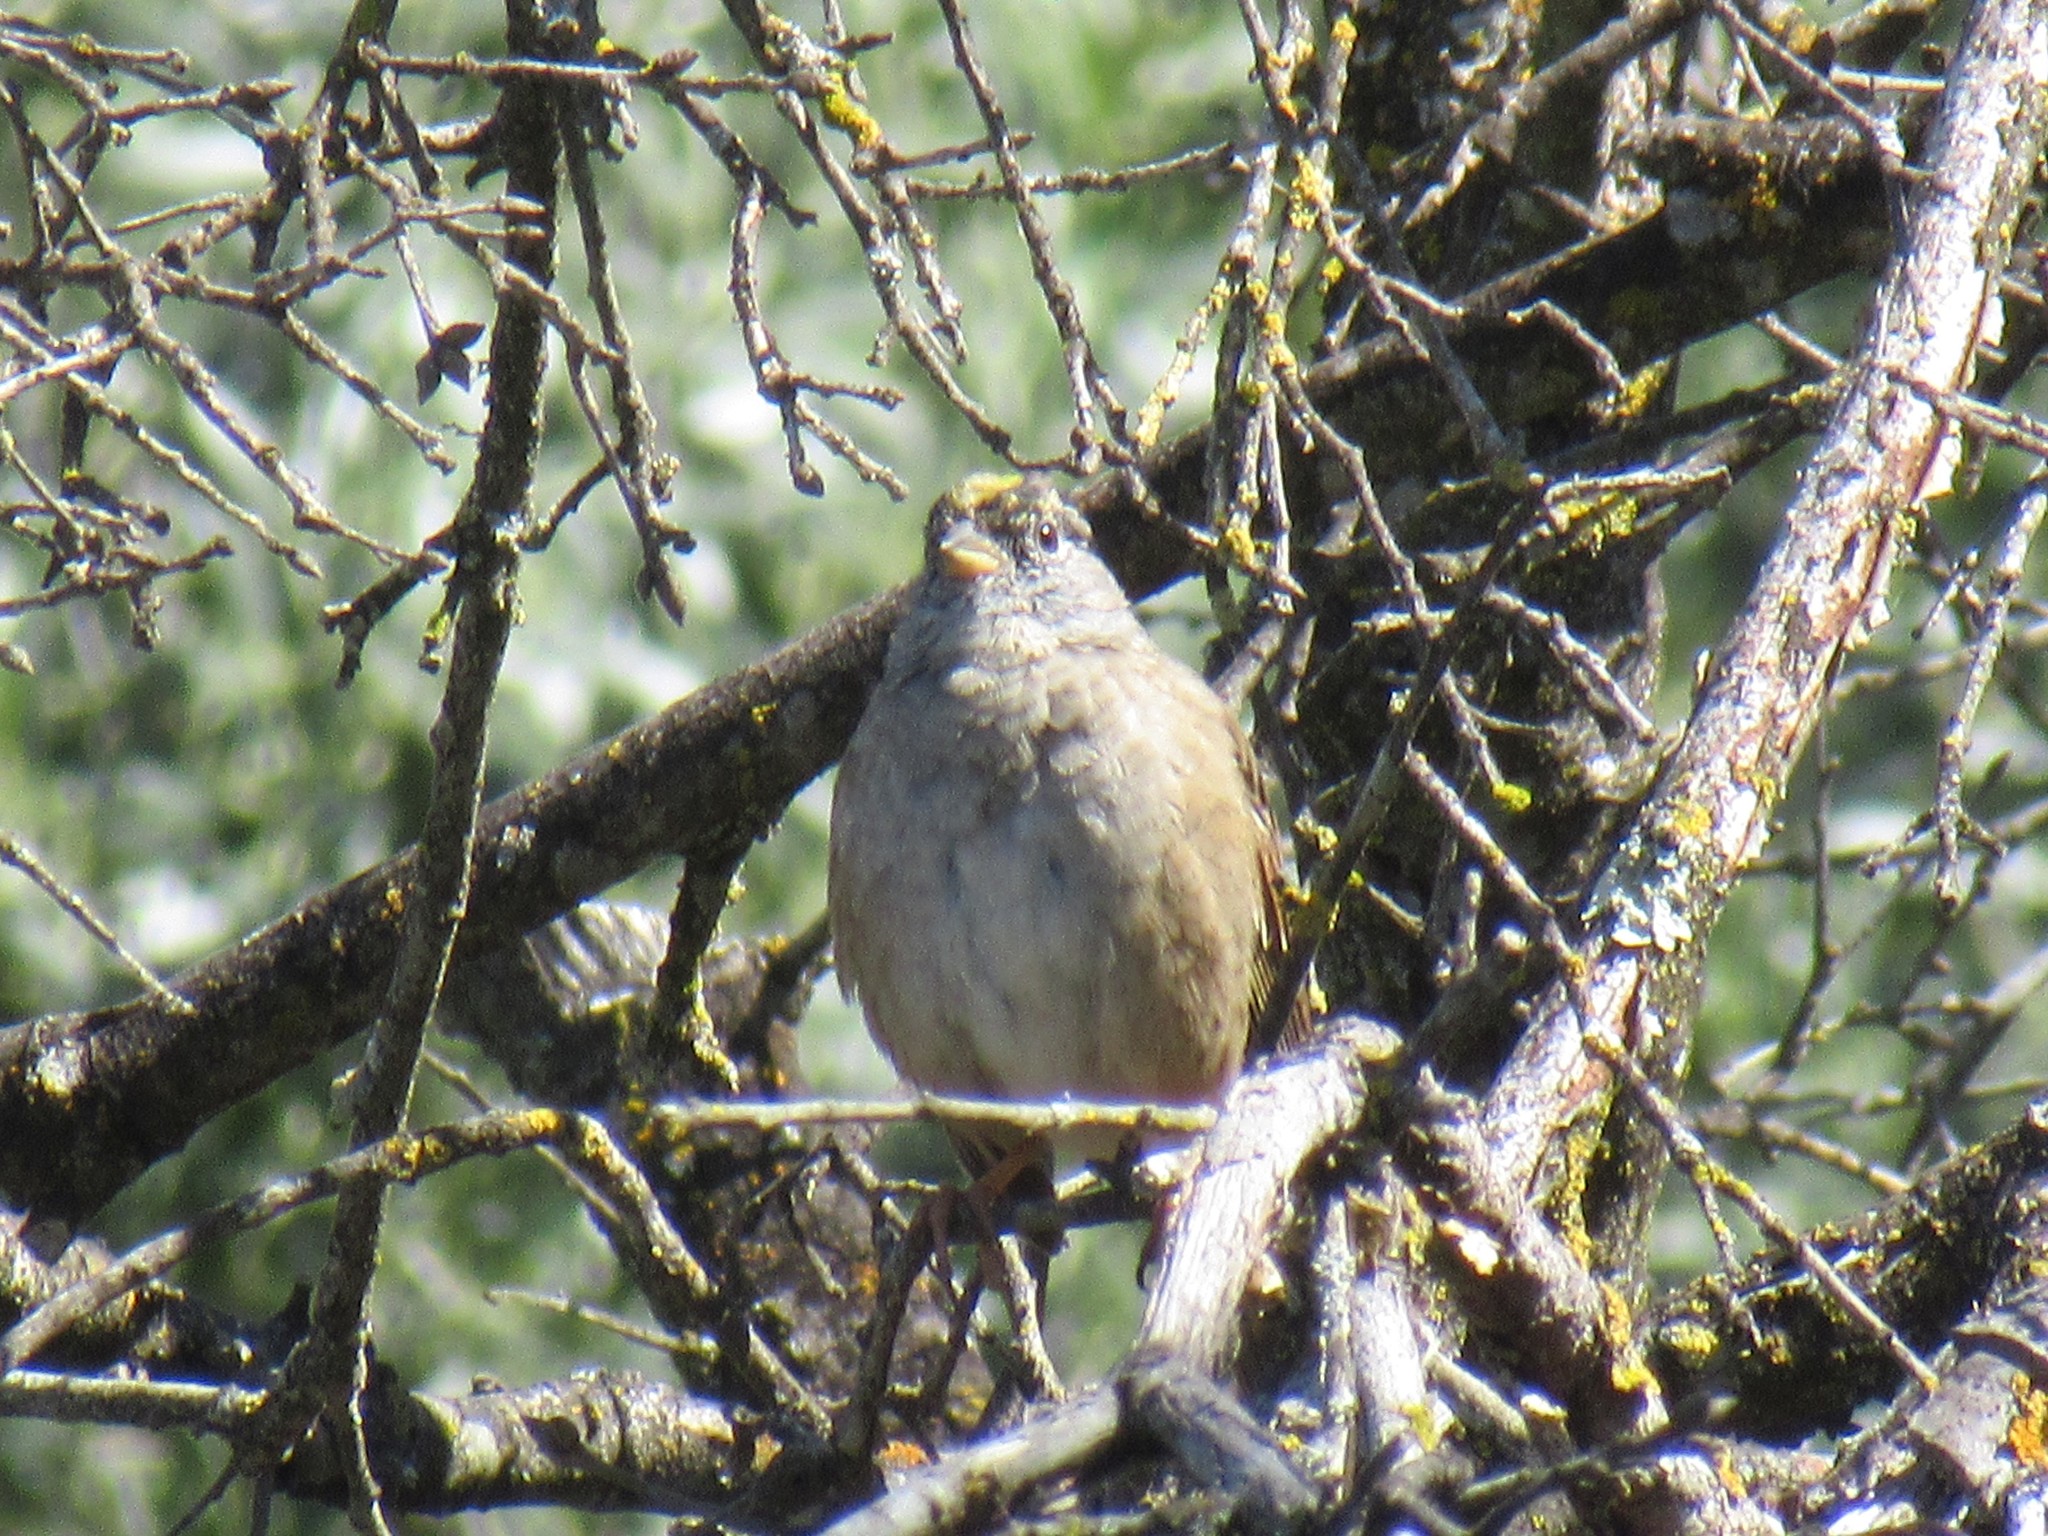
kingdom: Animalia
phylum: Chordata
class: Aves
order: Passeriformes
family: Passerellidae
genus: Zonotrichia
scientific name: Zonotrichia atricapilla
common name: Golden-crowned sparrow
